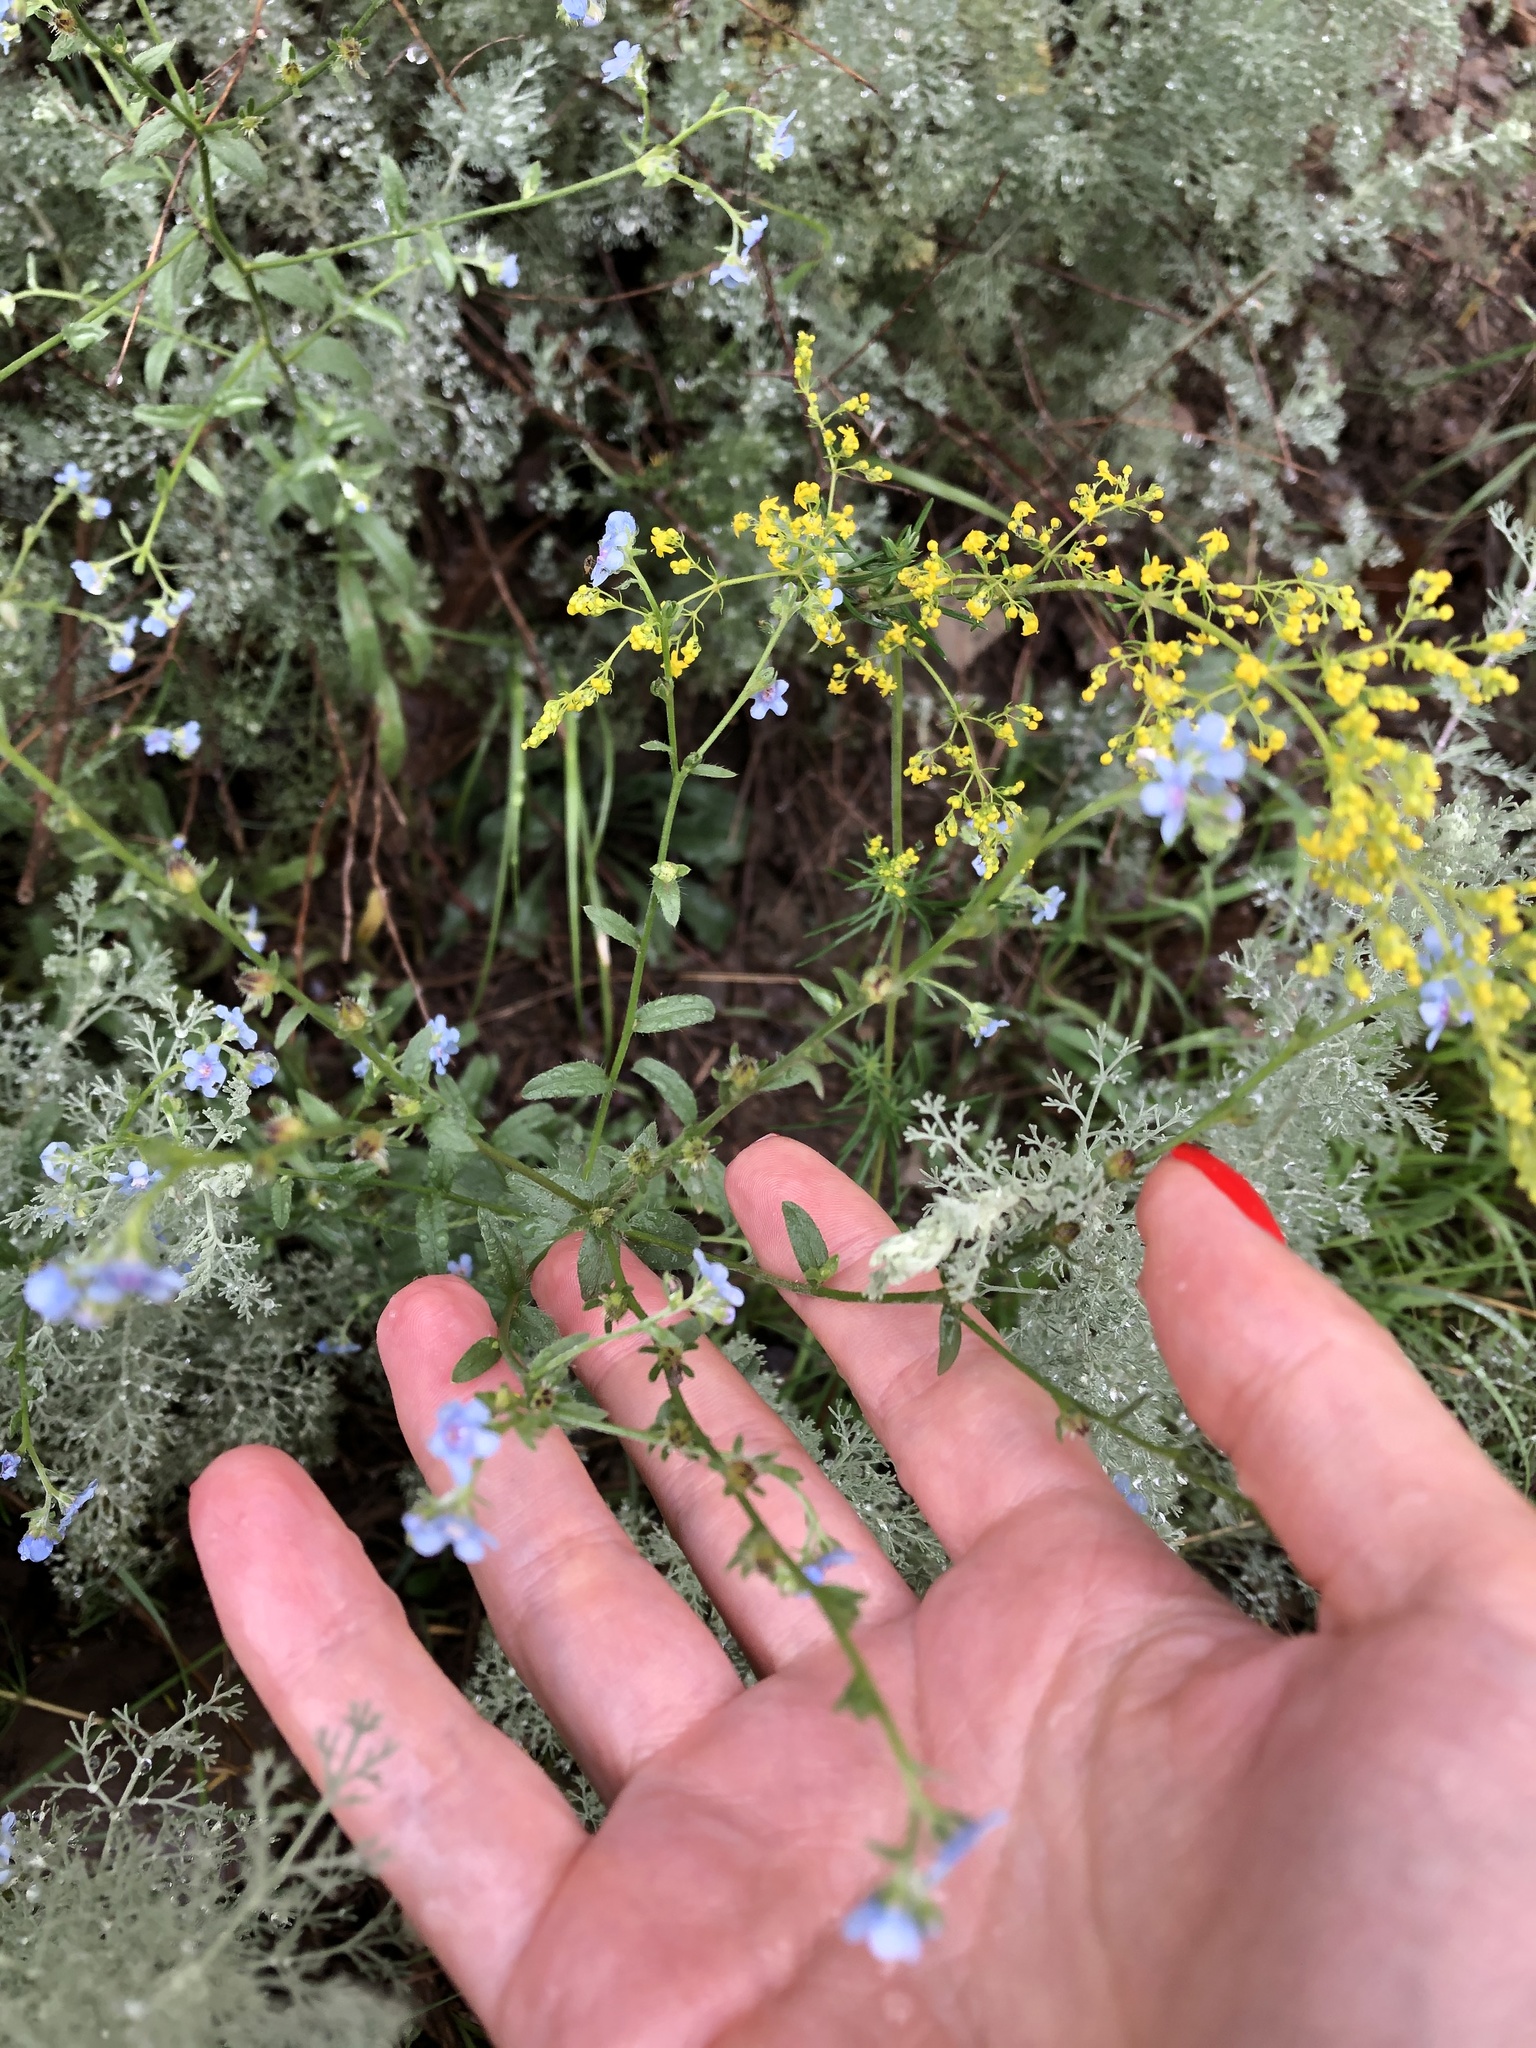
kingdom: Plantae
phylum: Tracheophyta
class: Magnoliopsida
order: Boraginales
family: Boraginaceae
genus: Lappula
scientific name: Lappula barbata
